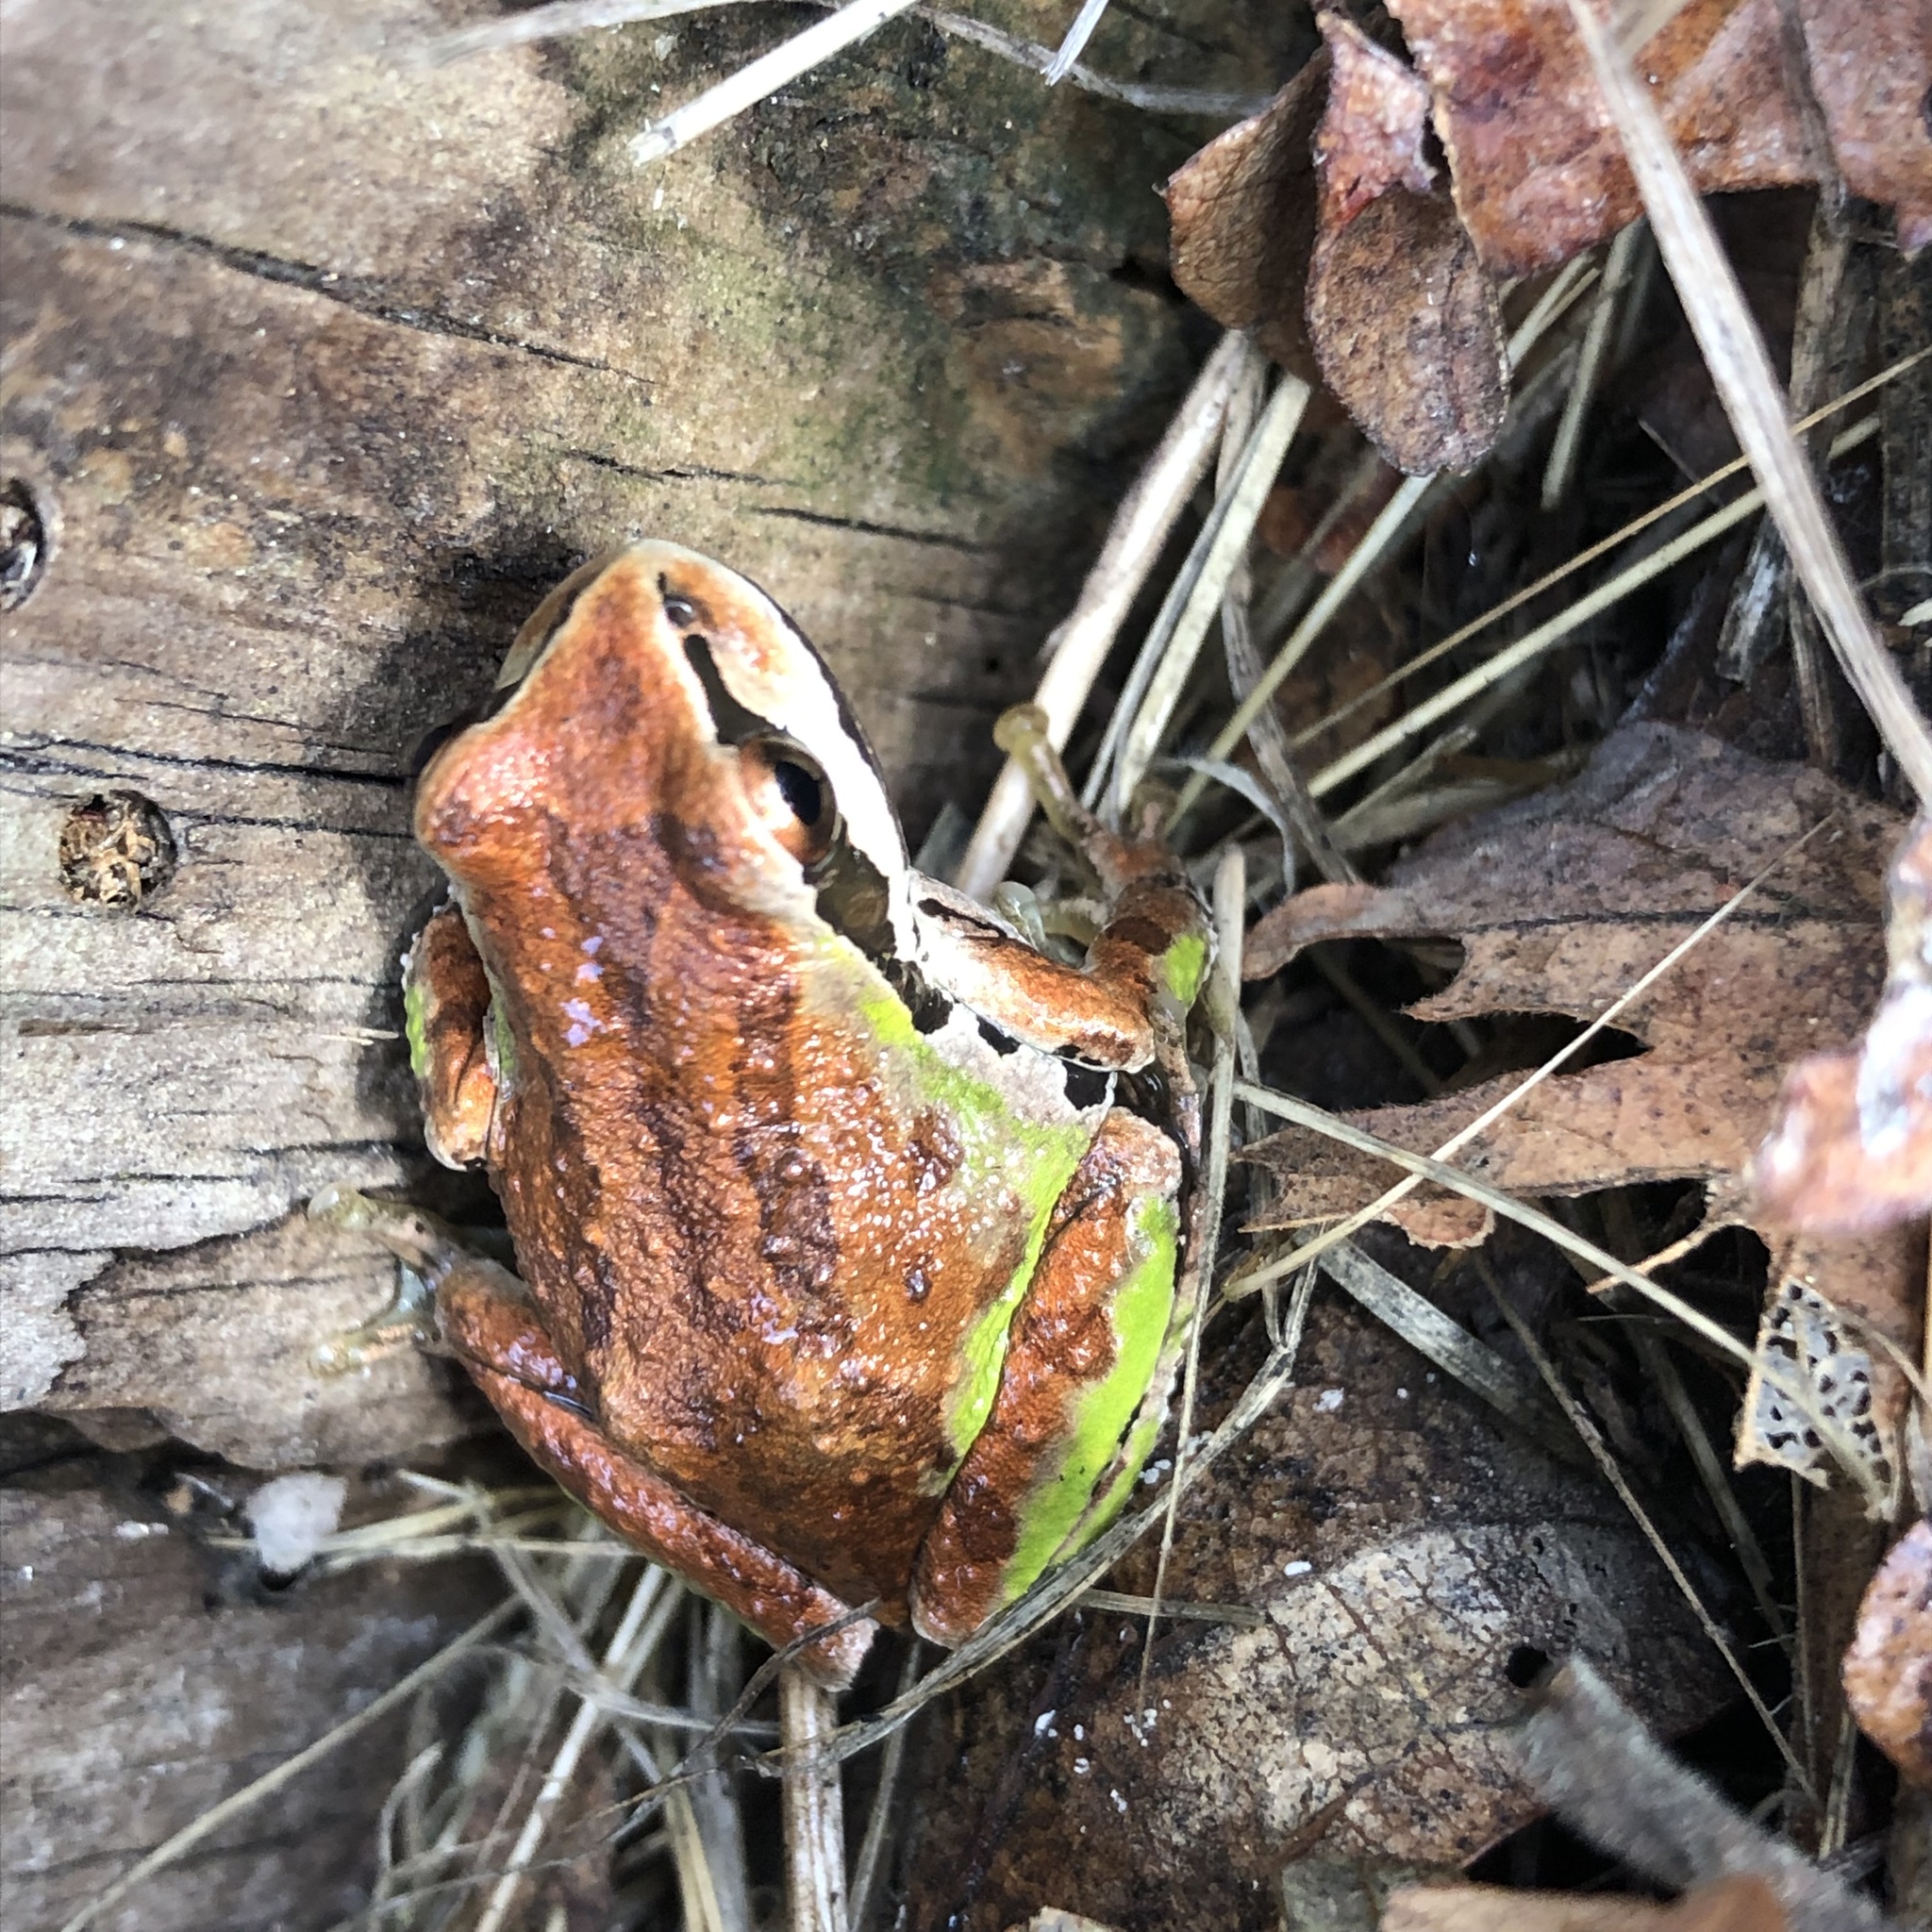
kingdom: Animalia
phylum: Chordata
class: Amphibia
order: Anura
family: Hylidae
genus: Pseudacris
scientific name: Pseudacris regilla
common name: Pacific chorus frog
